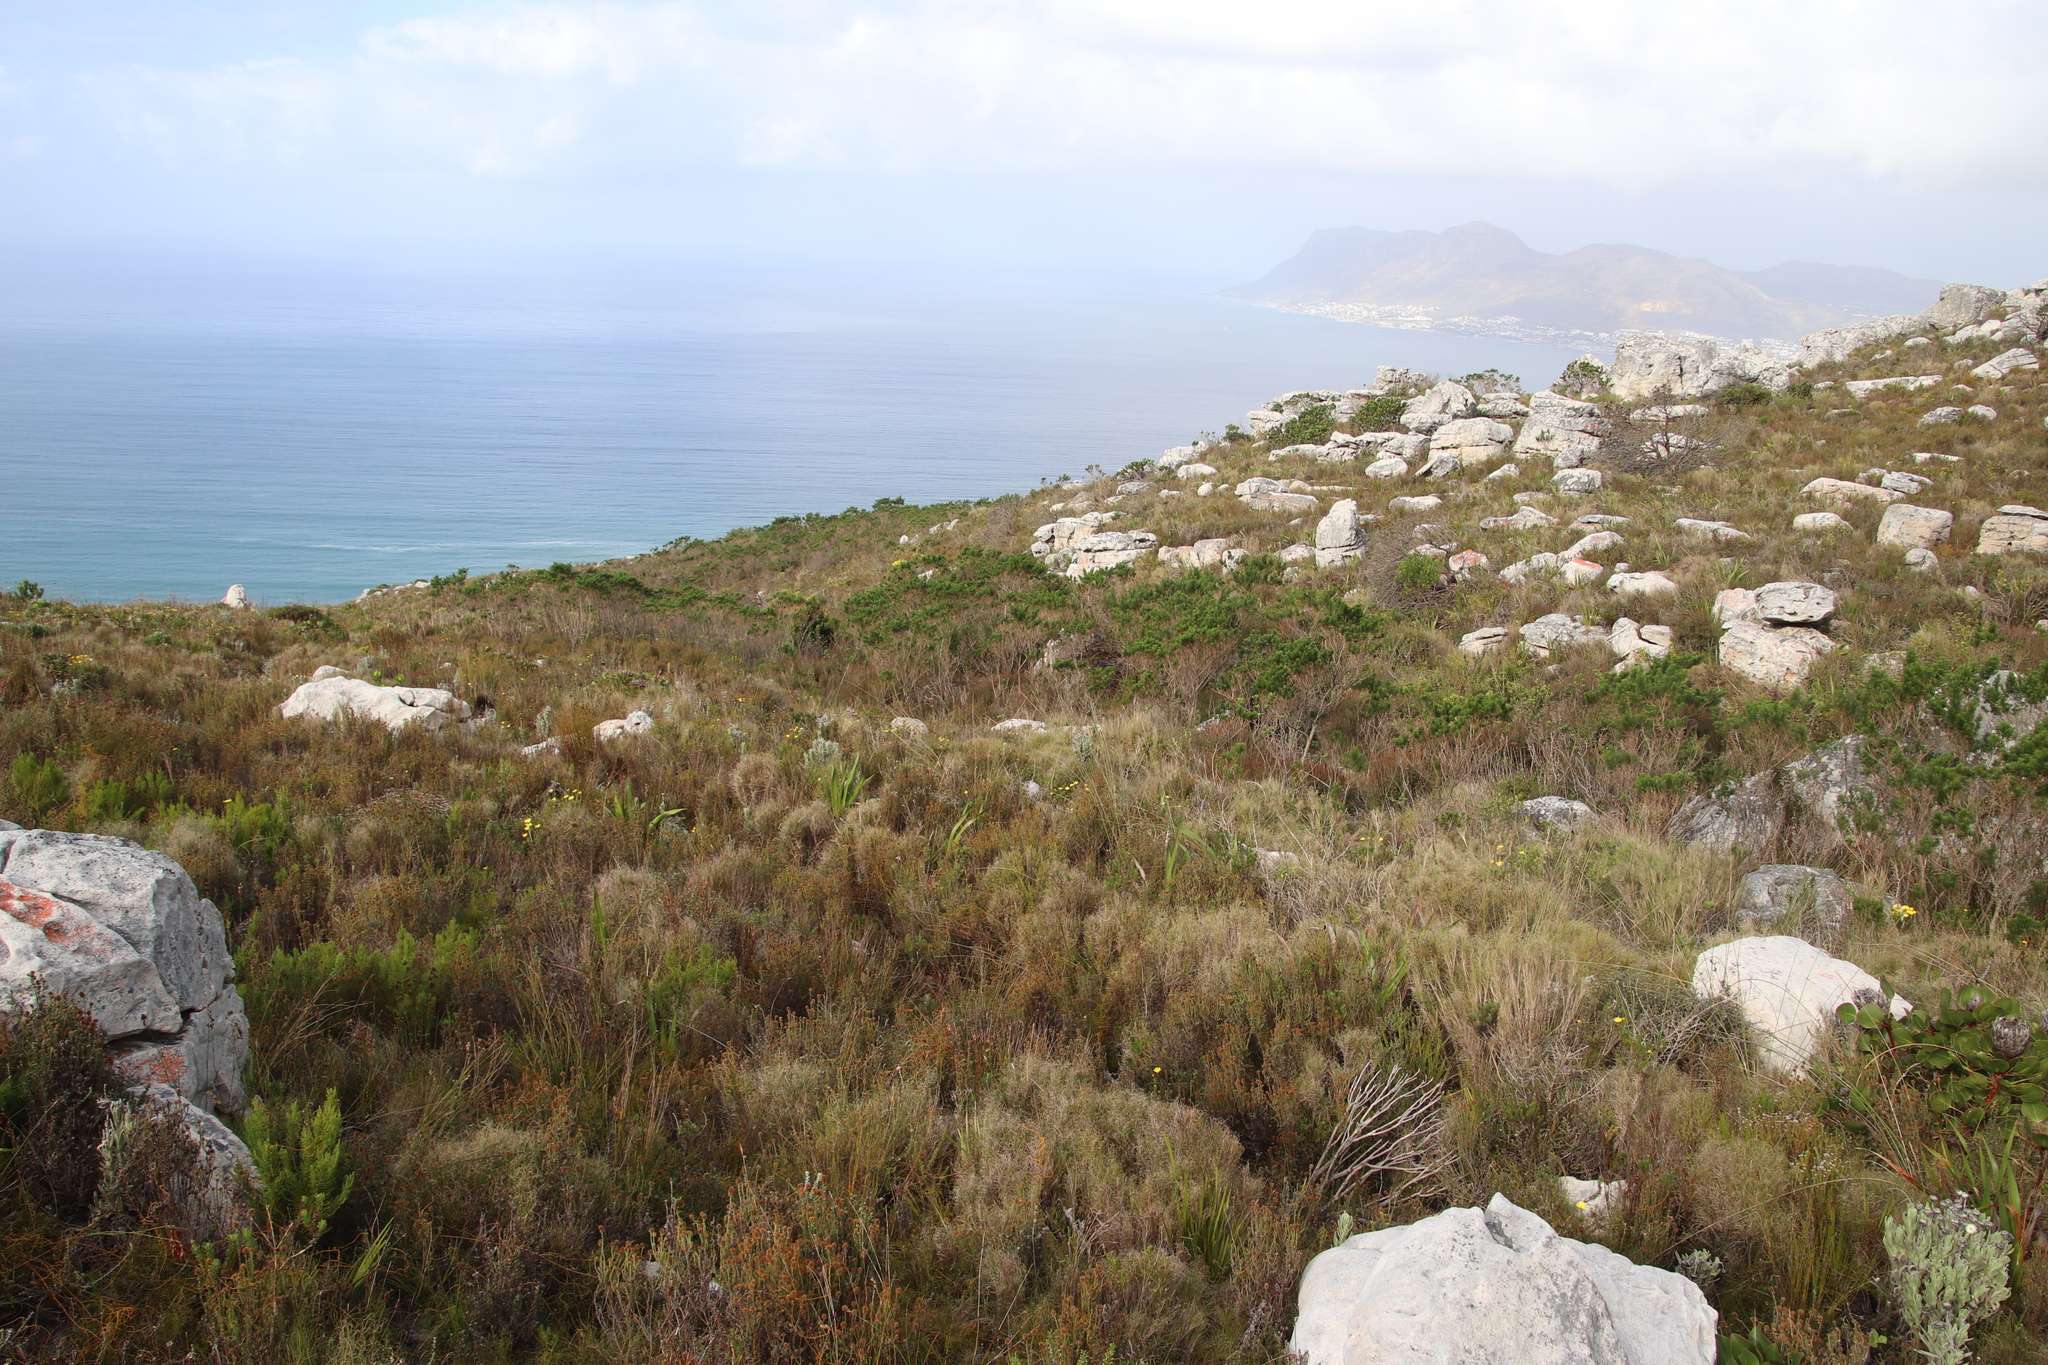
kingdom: Plantae
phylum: Tracheophyta
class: Magnoliopsida
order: Fabales
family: Fabaceae
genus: Psoralea
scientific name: Psoralea pinnata
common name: African scurfpea
